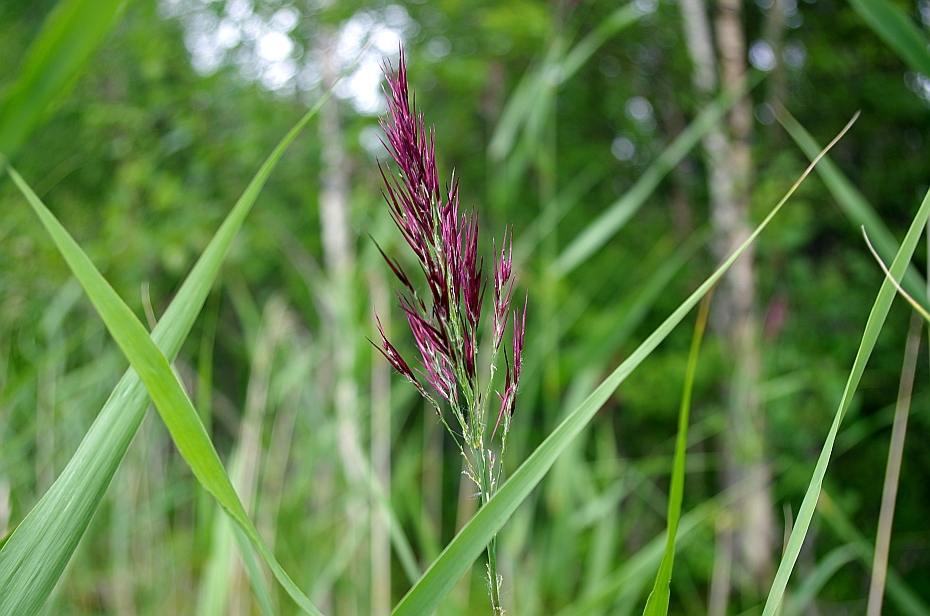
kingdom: Plantae
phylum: Tracheophyta
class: Liliopsida
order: Poales
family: Poaceae
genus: Phragmites
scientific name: Phragmites australis
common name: Common reed
